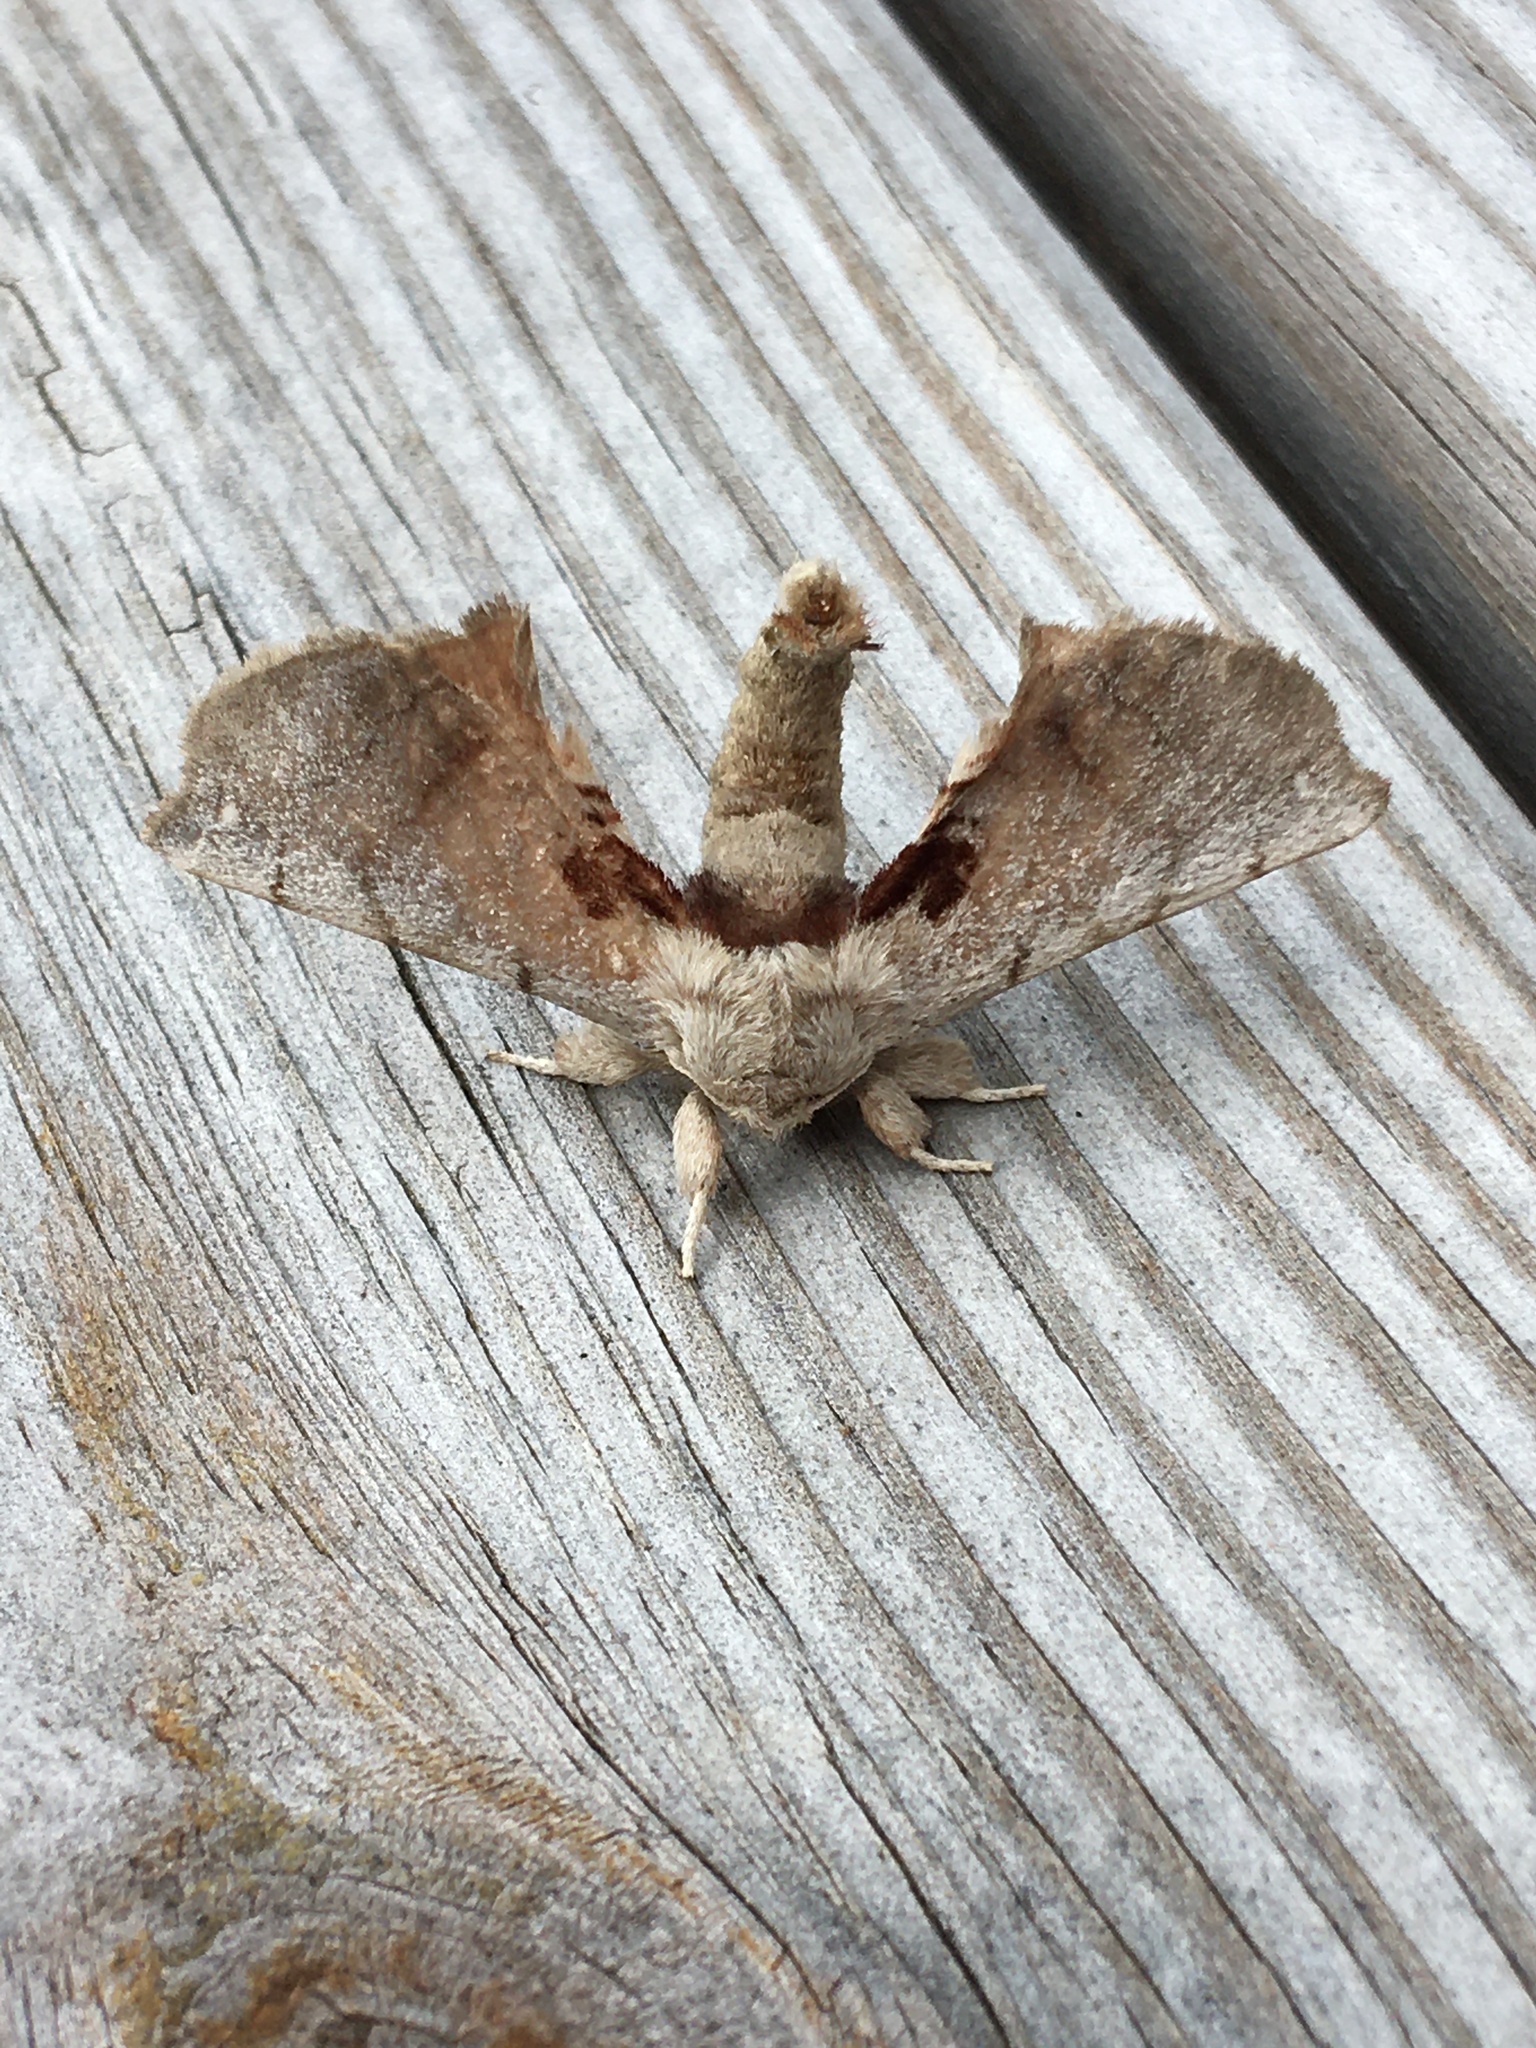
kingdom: Animalia
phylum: Arthropoda
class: Insecta
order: Lepidoptera
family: Apatelodidae
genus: Hygrochroa
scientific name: Hygrochroa Apatelodes torrefacta
